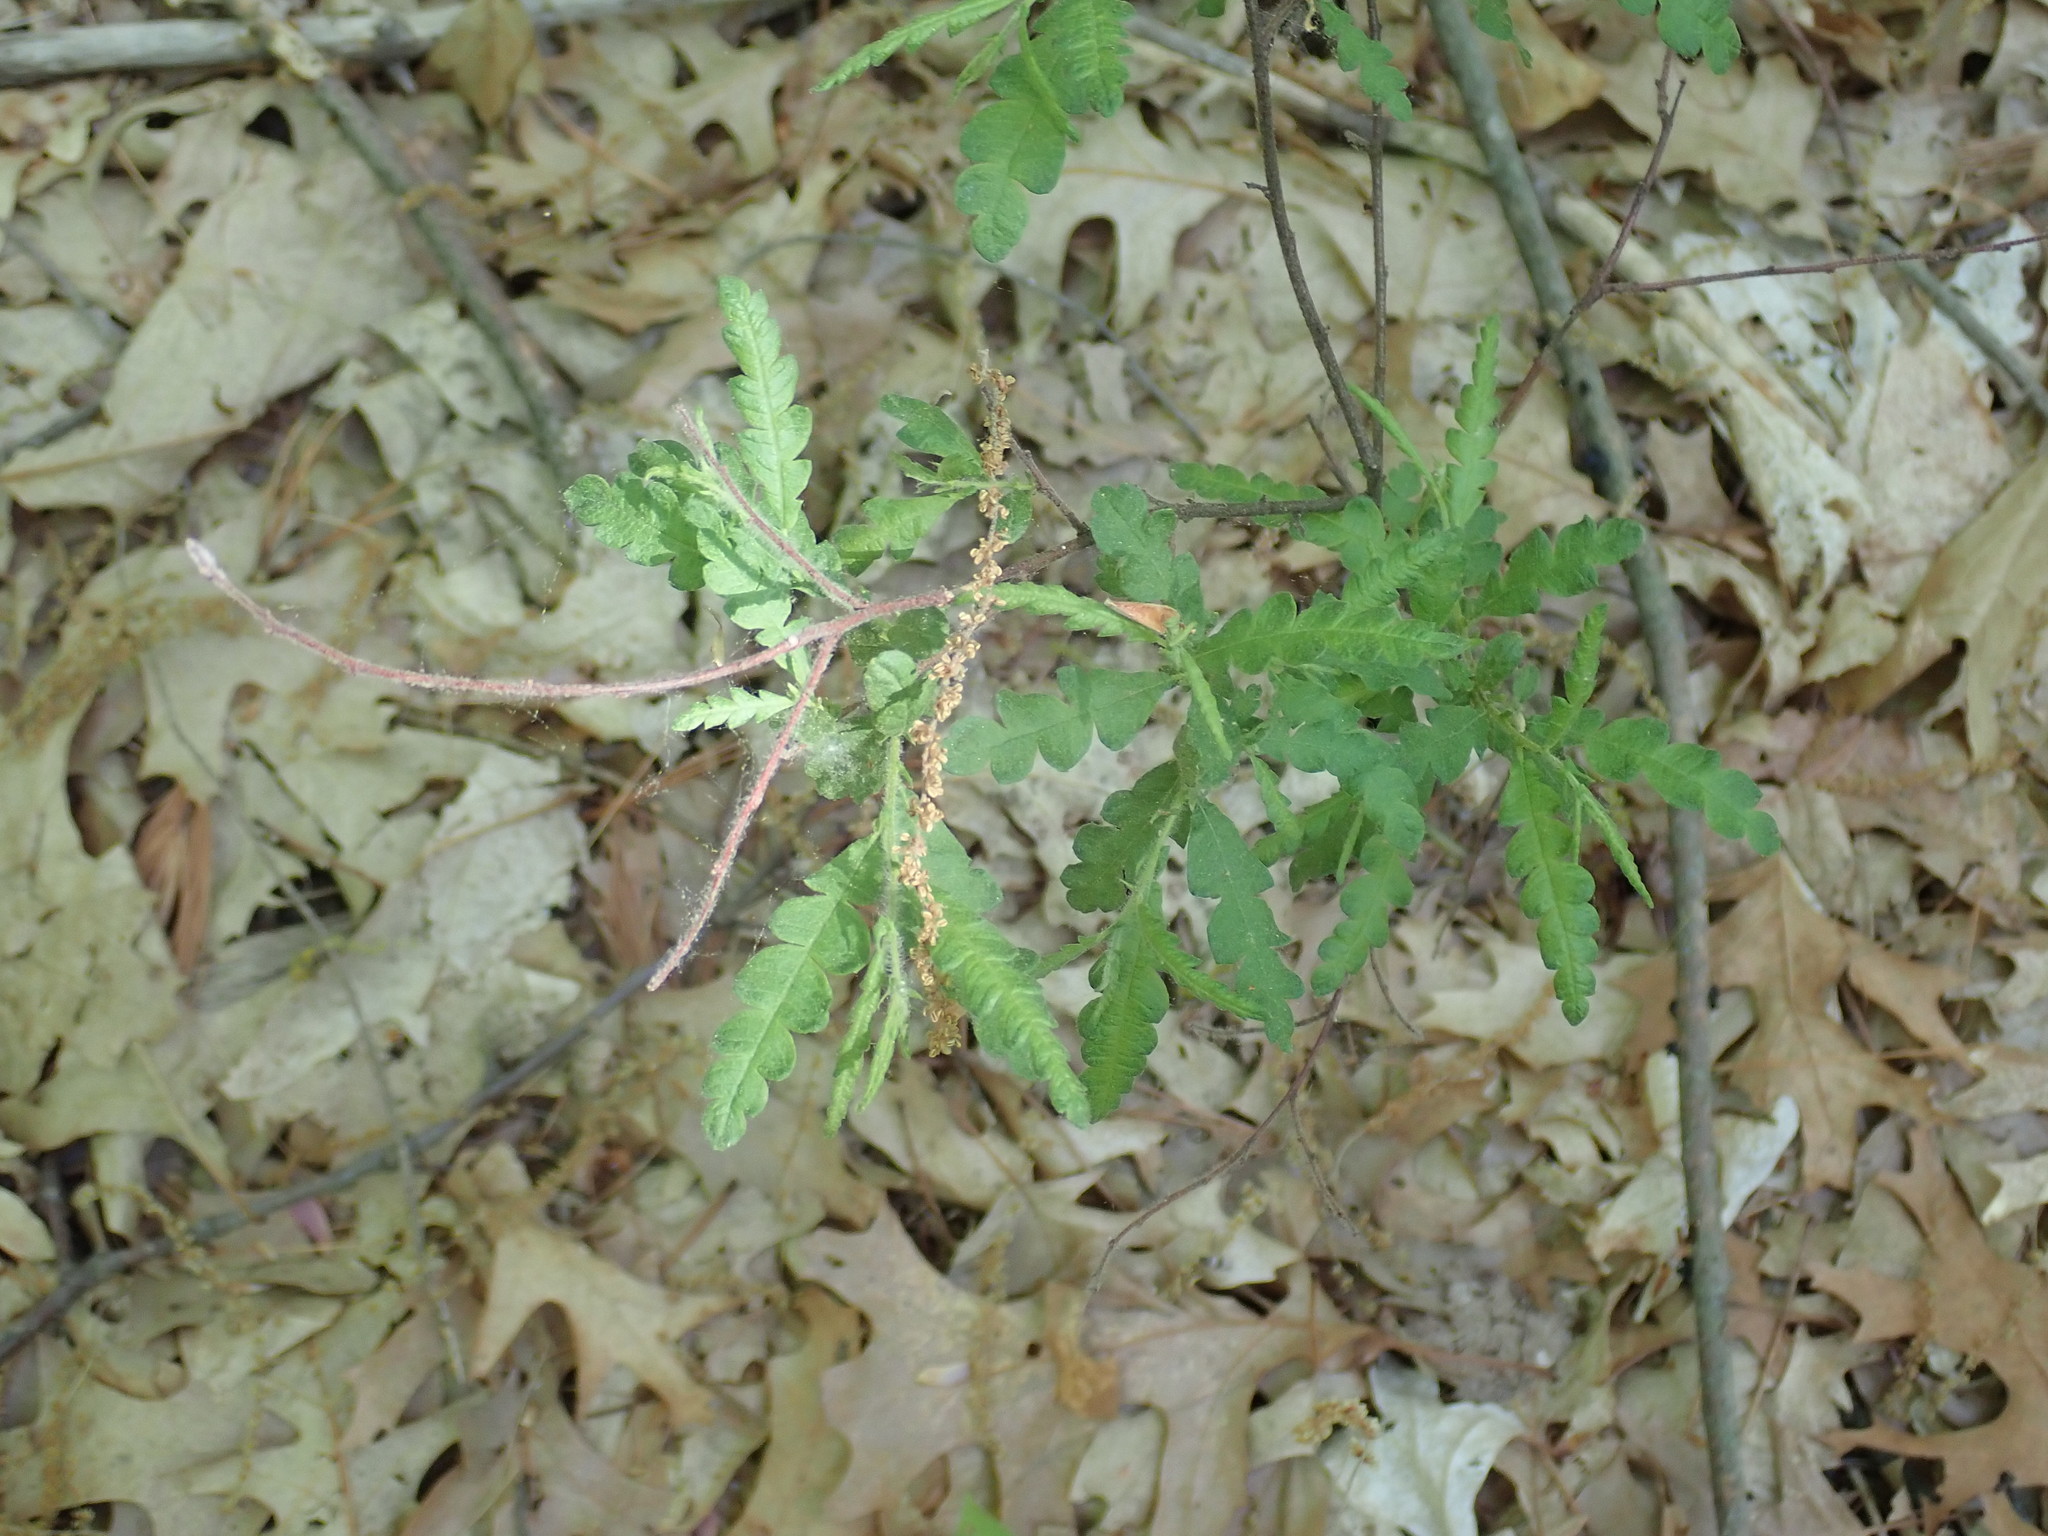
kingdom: Plantae
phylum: Tracheophyta
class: Magnoliopsida
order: Fagales
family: Myricaceae
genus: Comptonia
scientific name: Comptonia peregrina
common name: Sweet-fern
